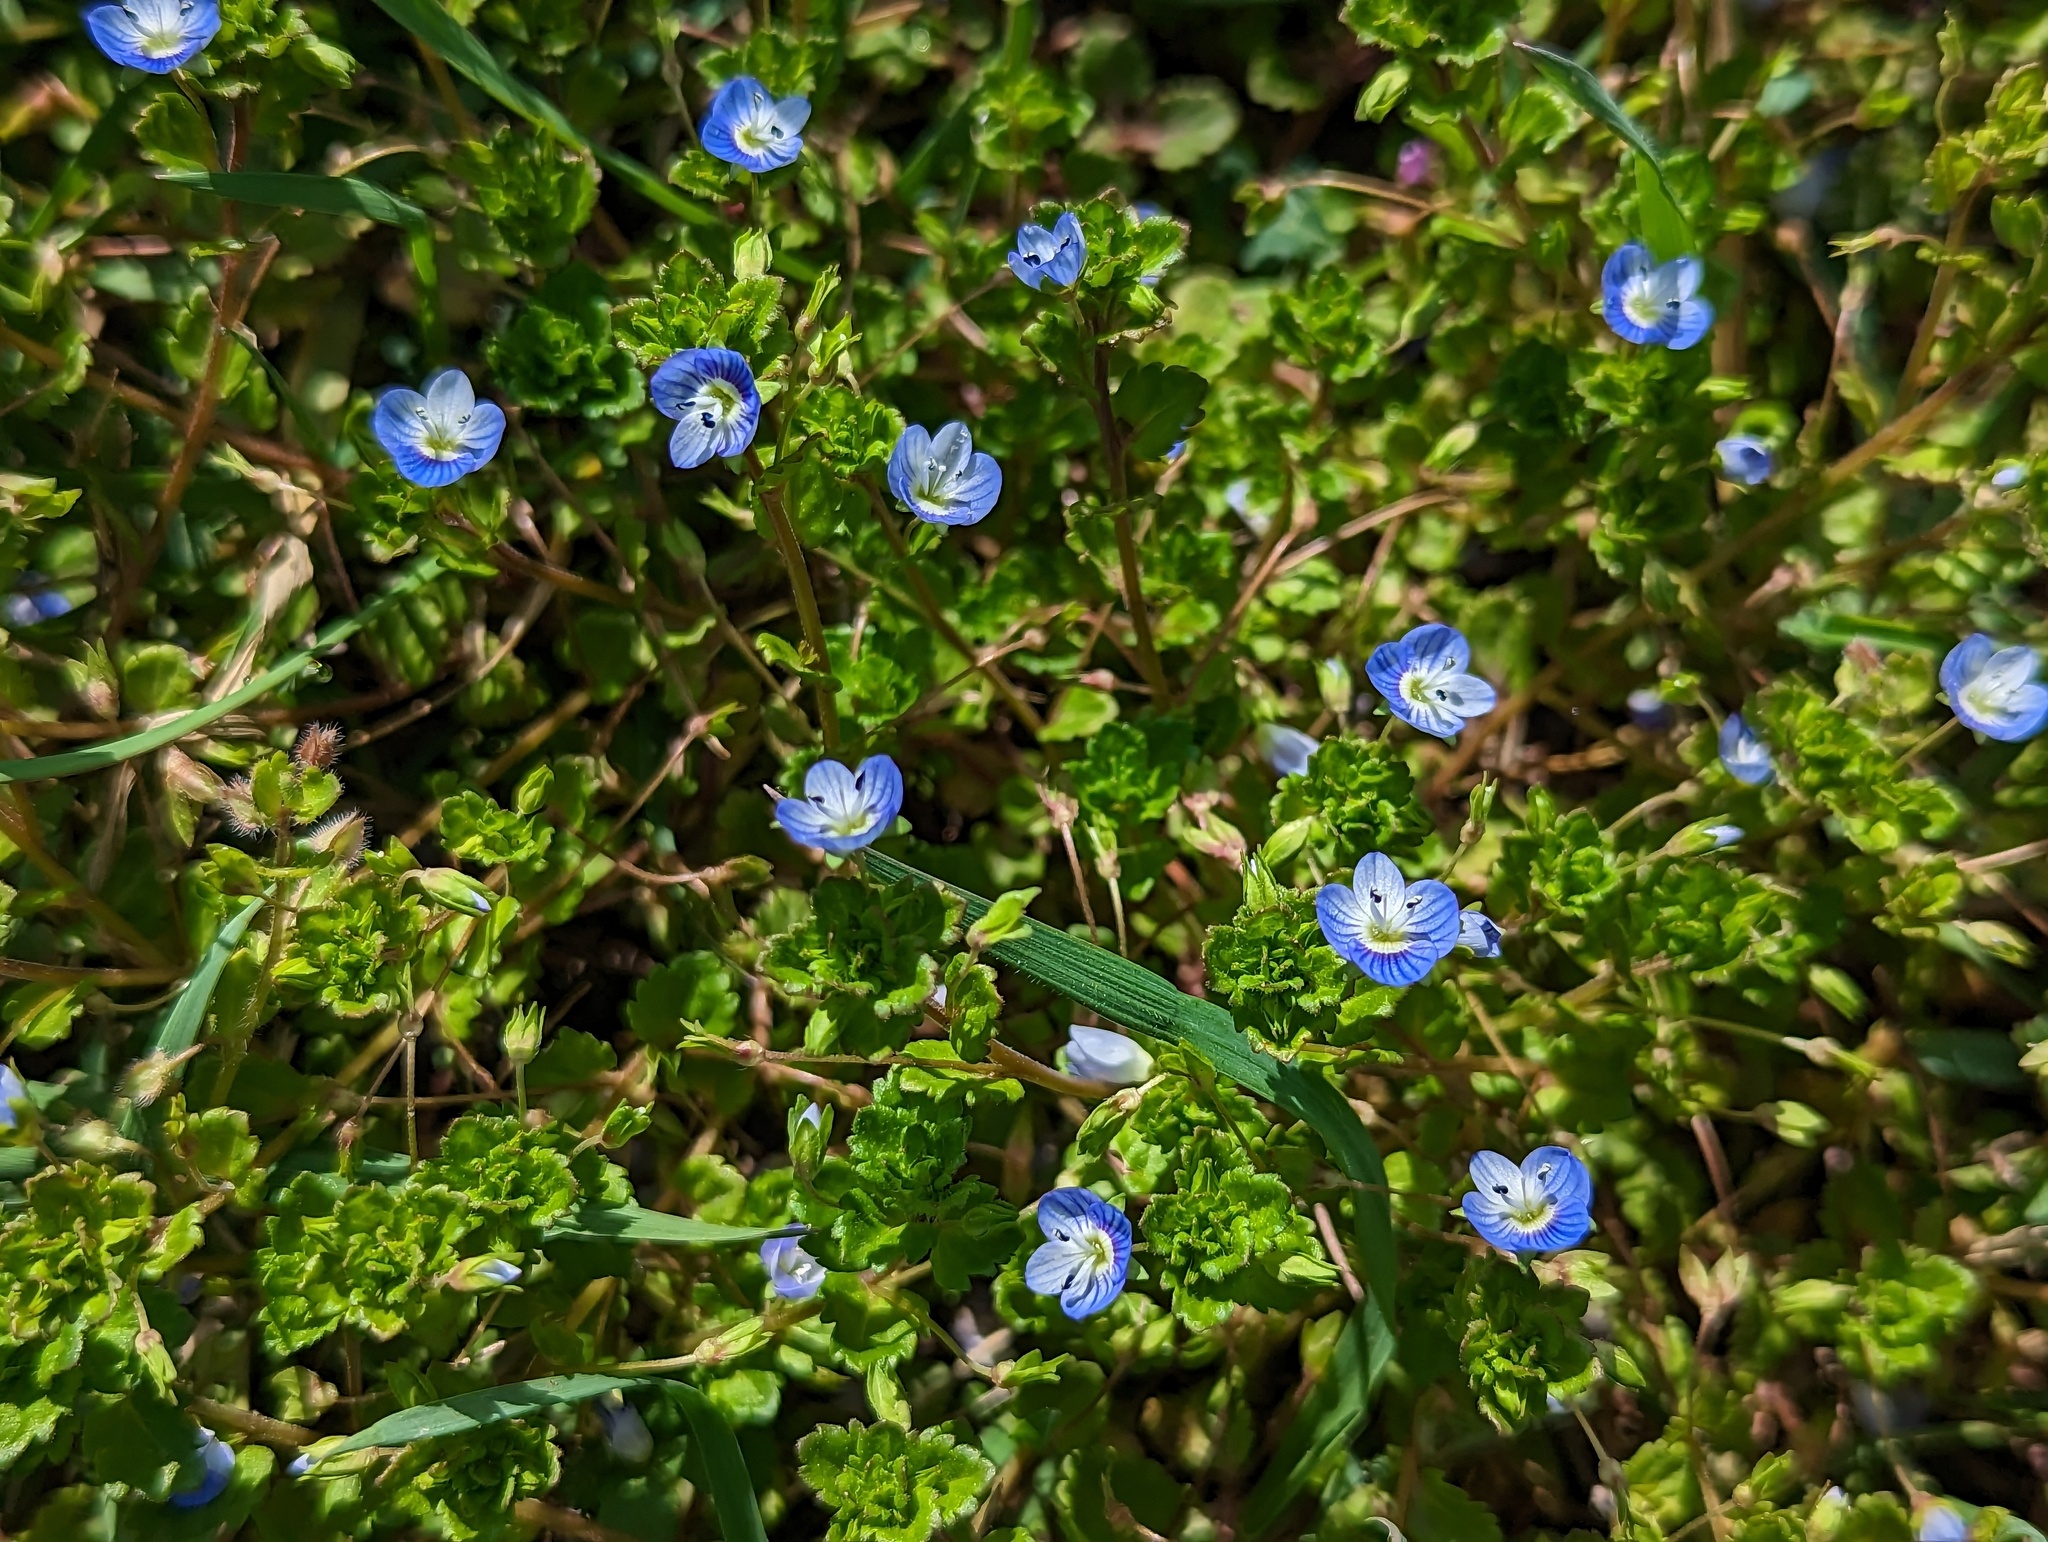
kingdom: Plantae
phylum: Tracheophyta
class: Magnoliopsida
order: Lamiales
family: Plantaginaceae
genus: Veronica
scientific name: Veronica persica
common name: Common field-speedwell
